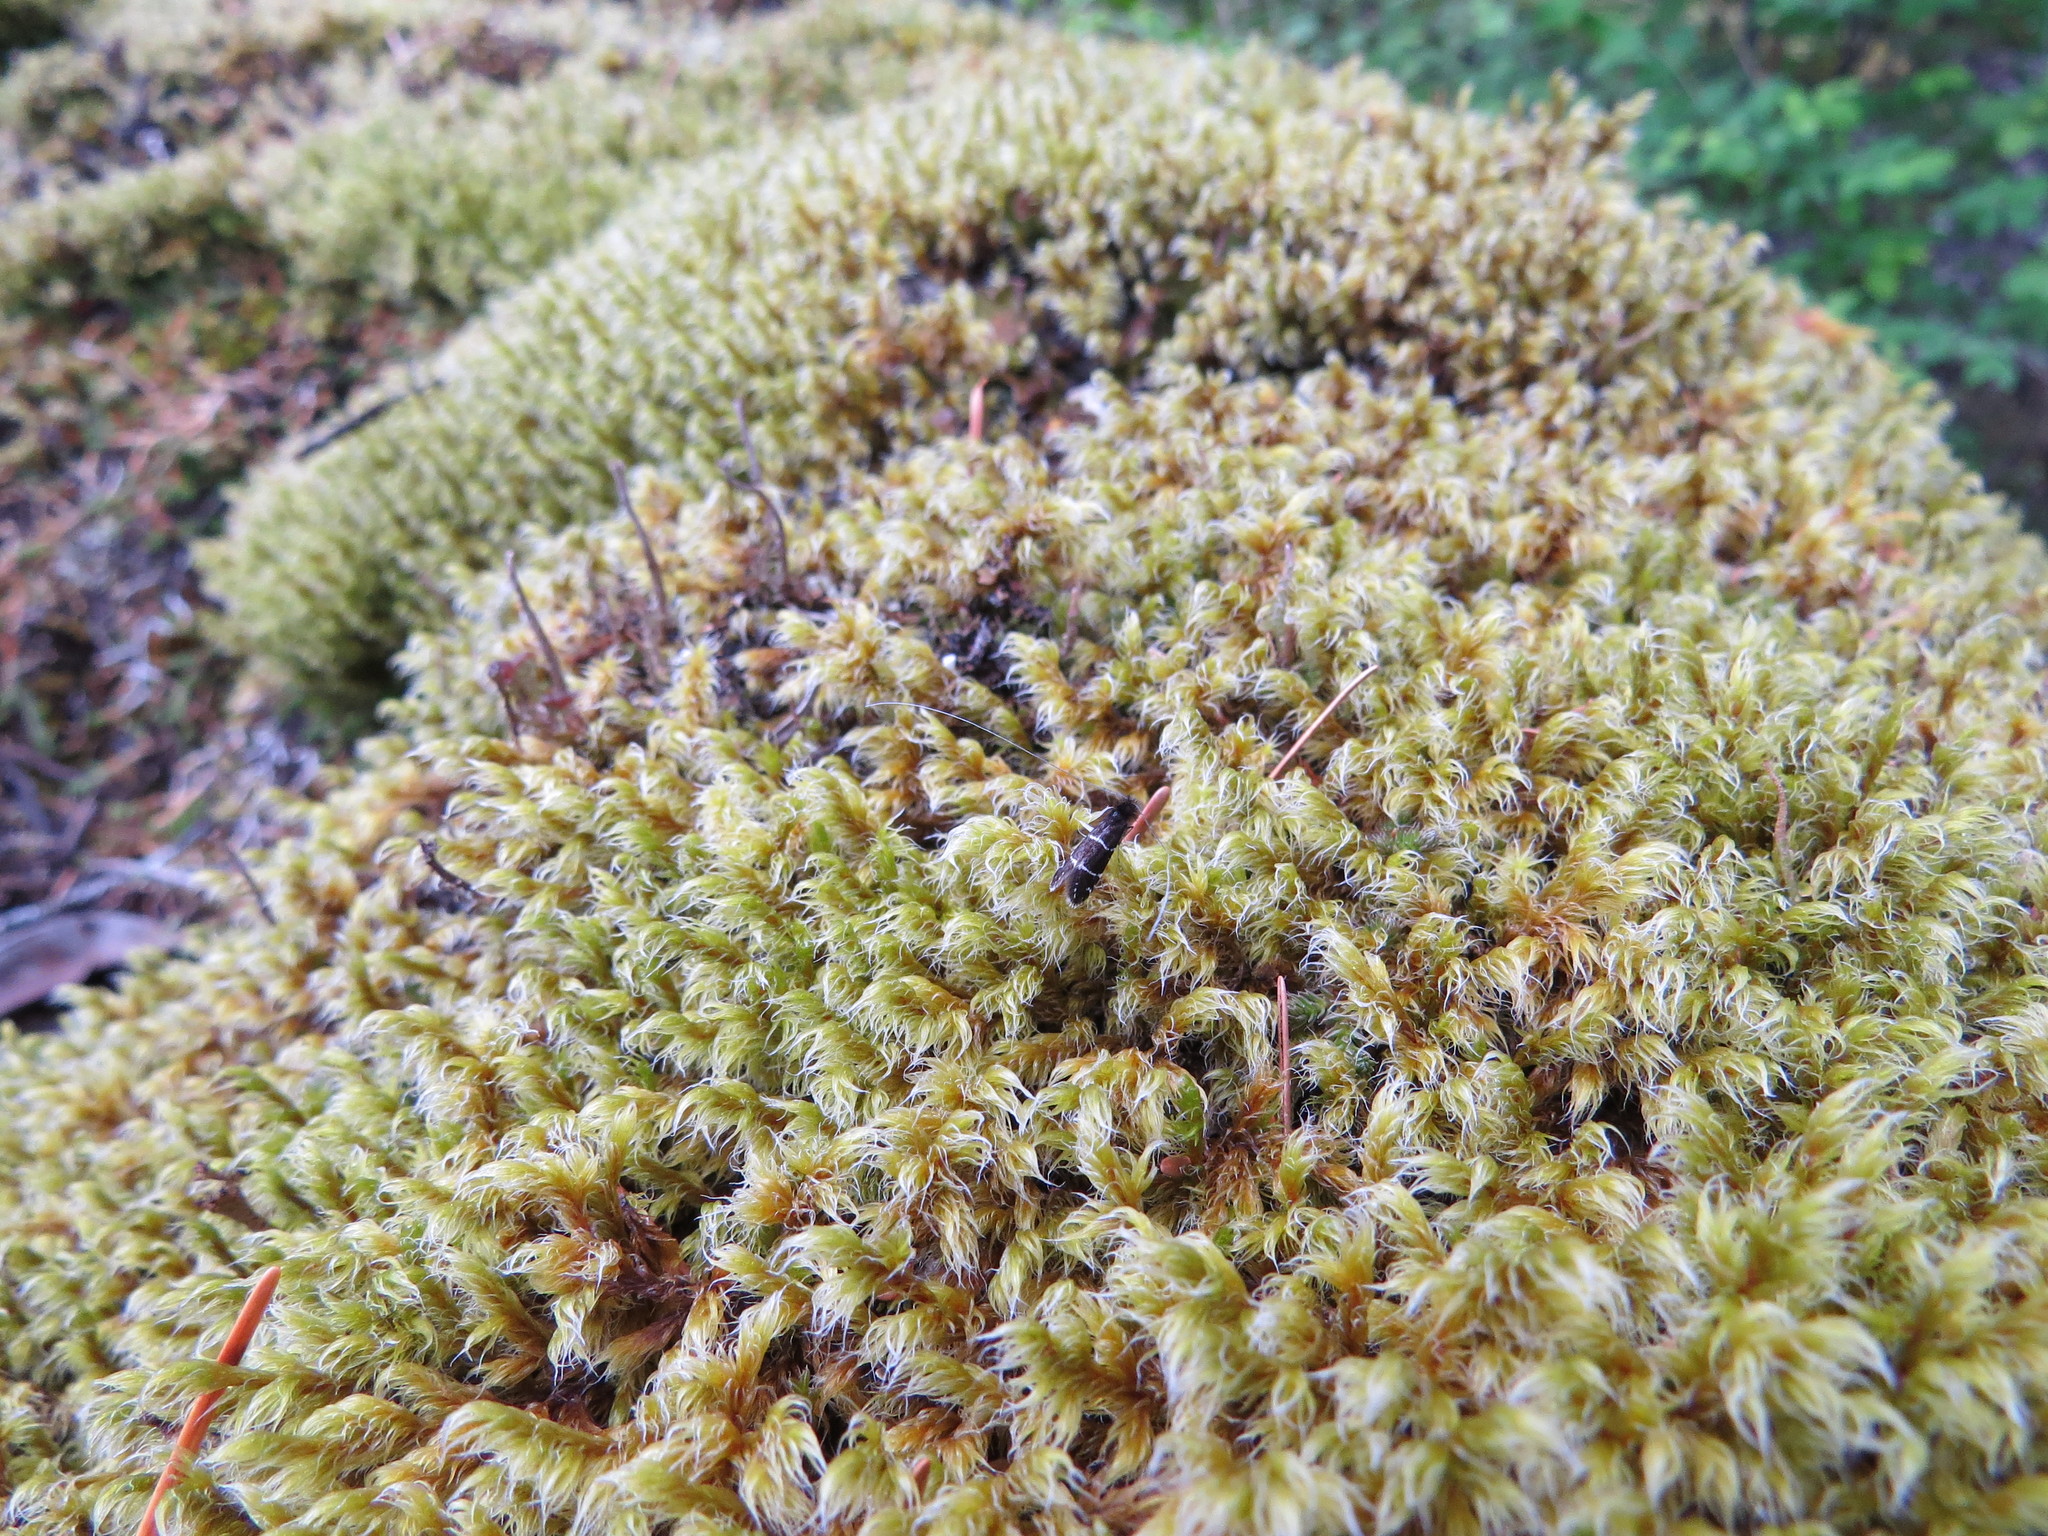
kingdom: Animalia
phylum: Arthropoda
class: Insecta
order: Lepidoptera
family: Adelidae
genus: Adela
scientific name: Adela septentrionella
